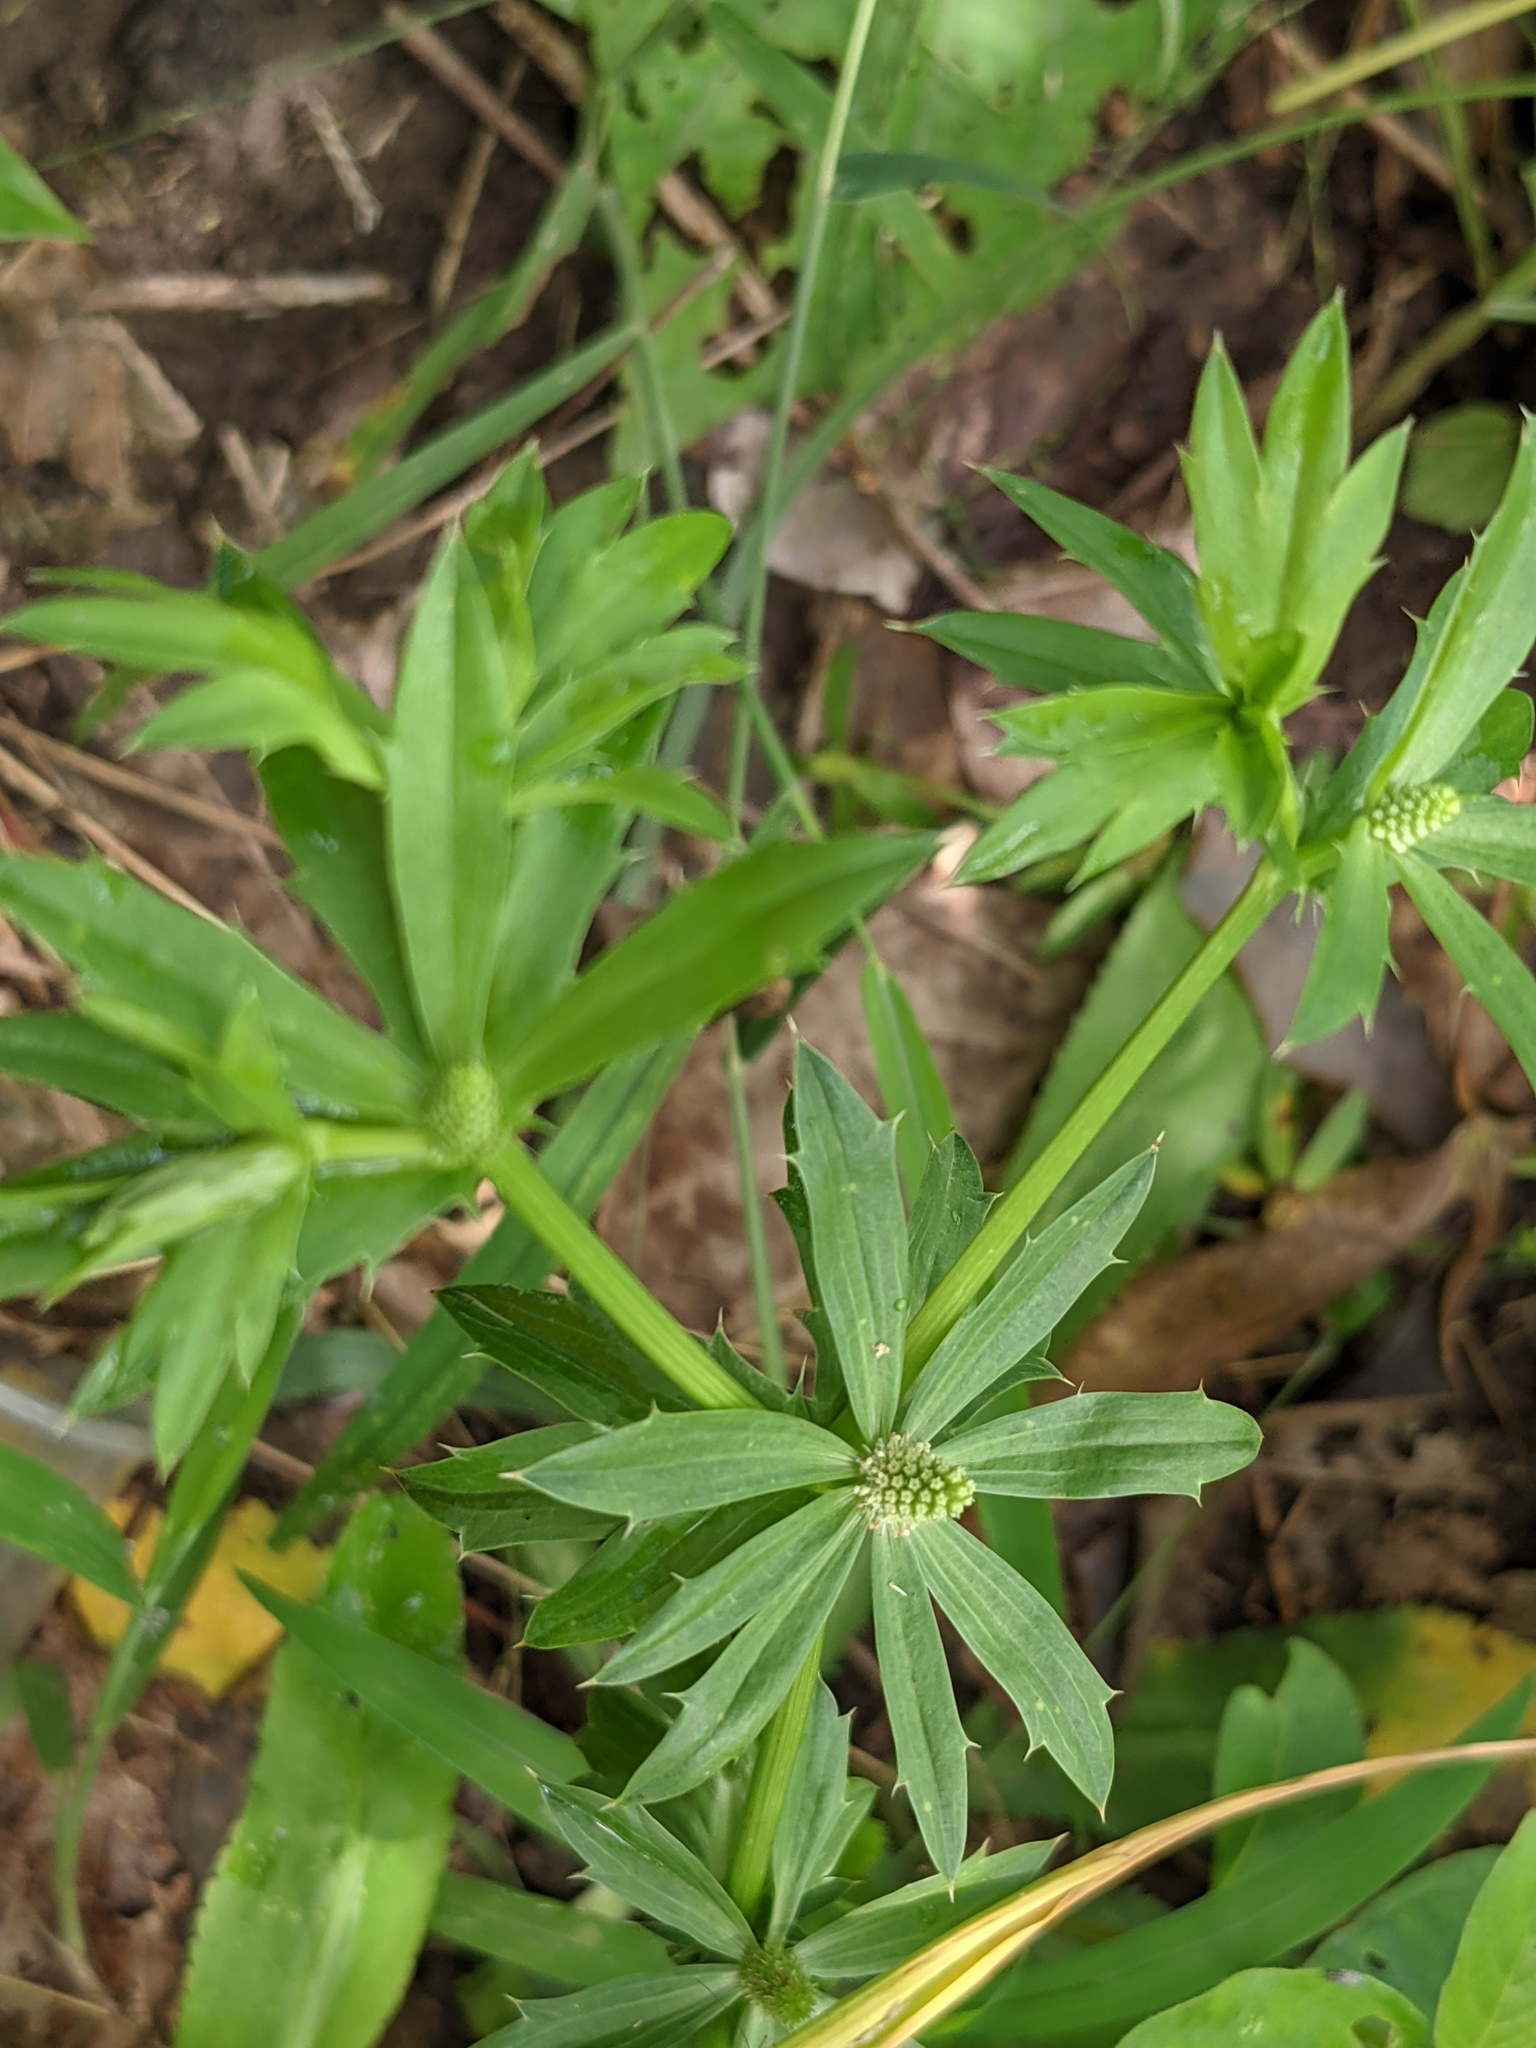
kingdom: Plantae
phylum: Tracheophyta
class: Magnoliopsida
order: Apiales
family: Apiaceae
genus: Eryngium
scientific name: Eryngium foetidum
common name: Fitweed
